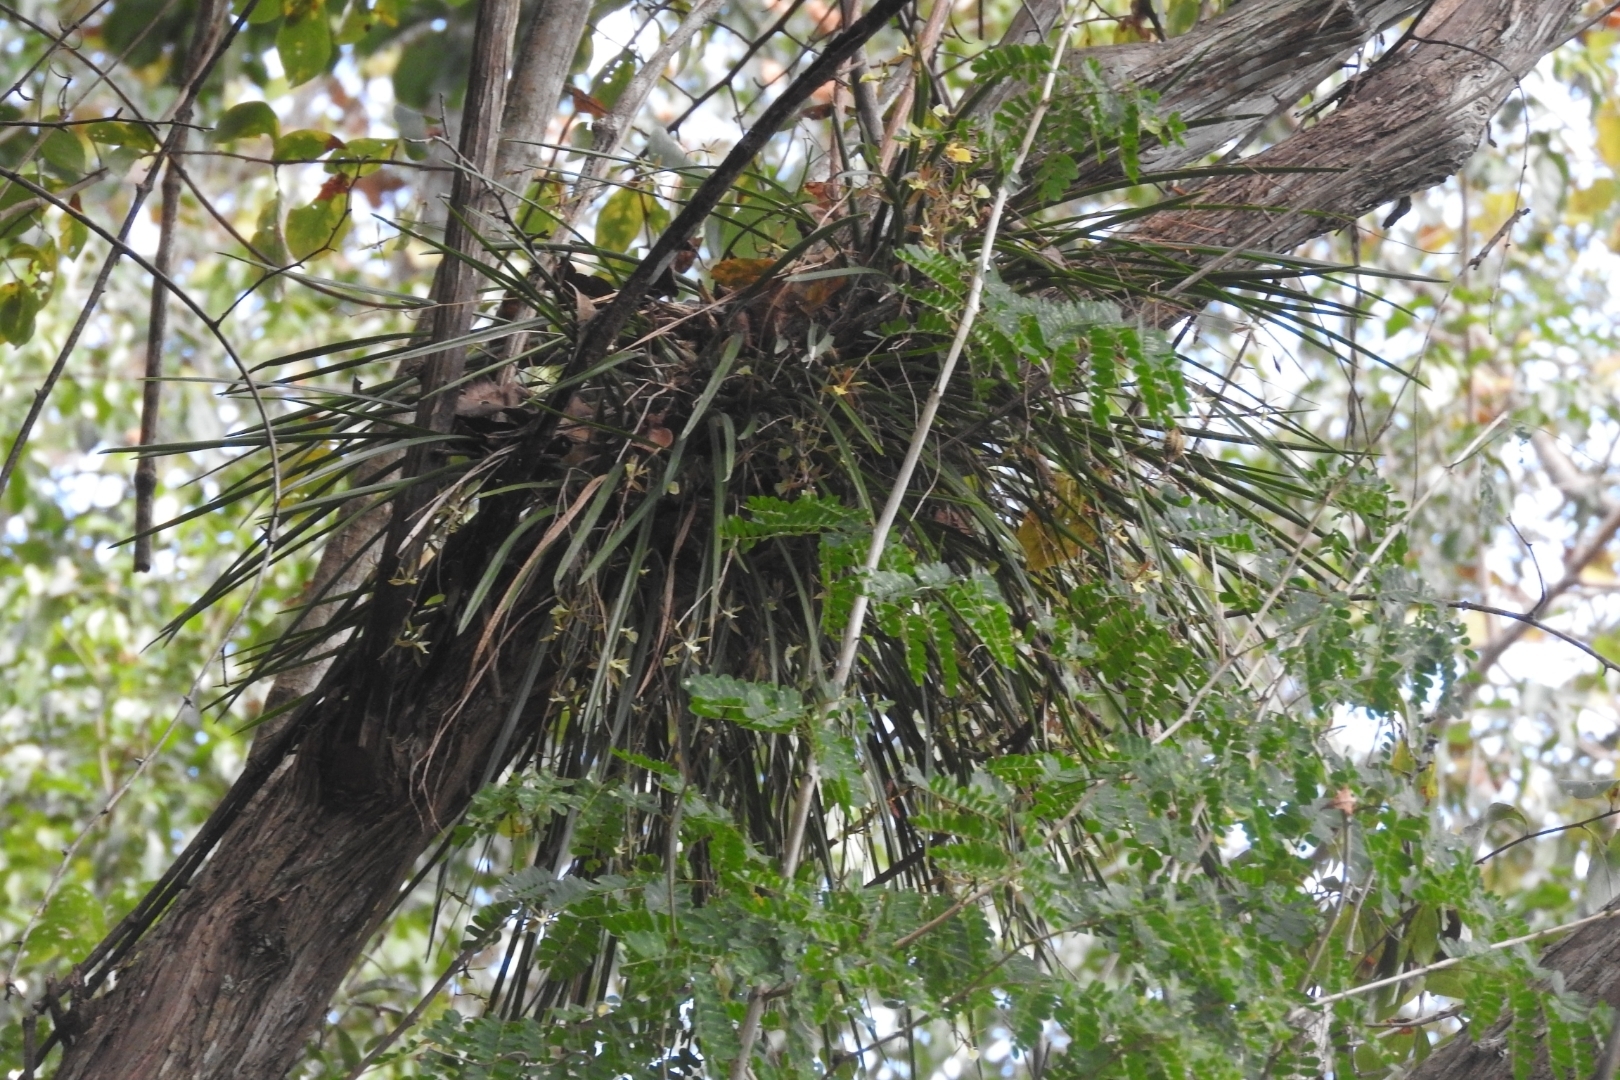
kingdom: Plantae
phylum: Tracheophyta
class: Liliopsida
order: Asparagales
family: Orchidaceae
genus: Encyclia
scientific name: Encyclia nematocaulon
